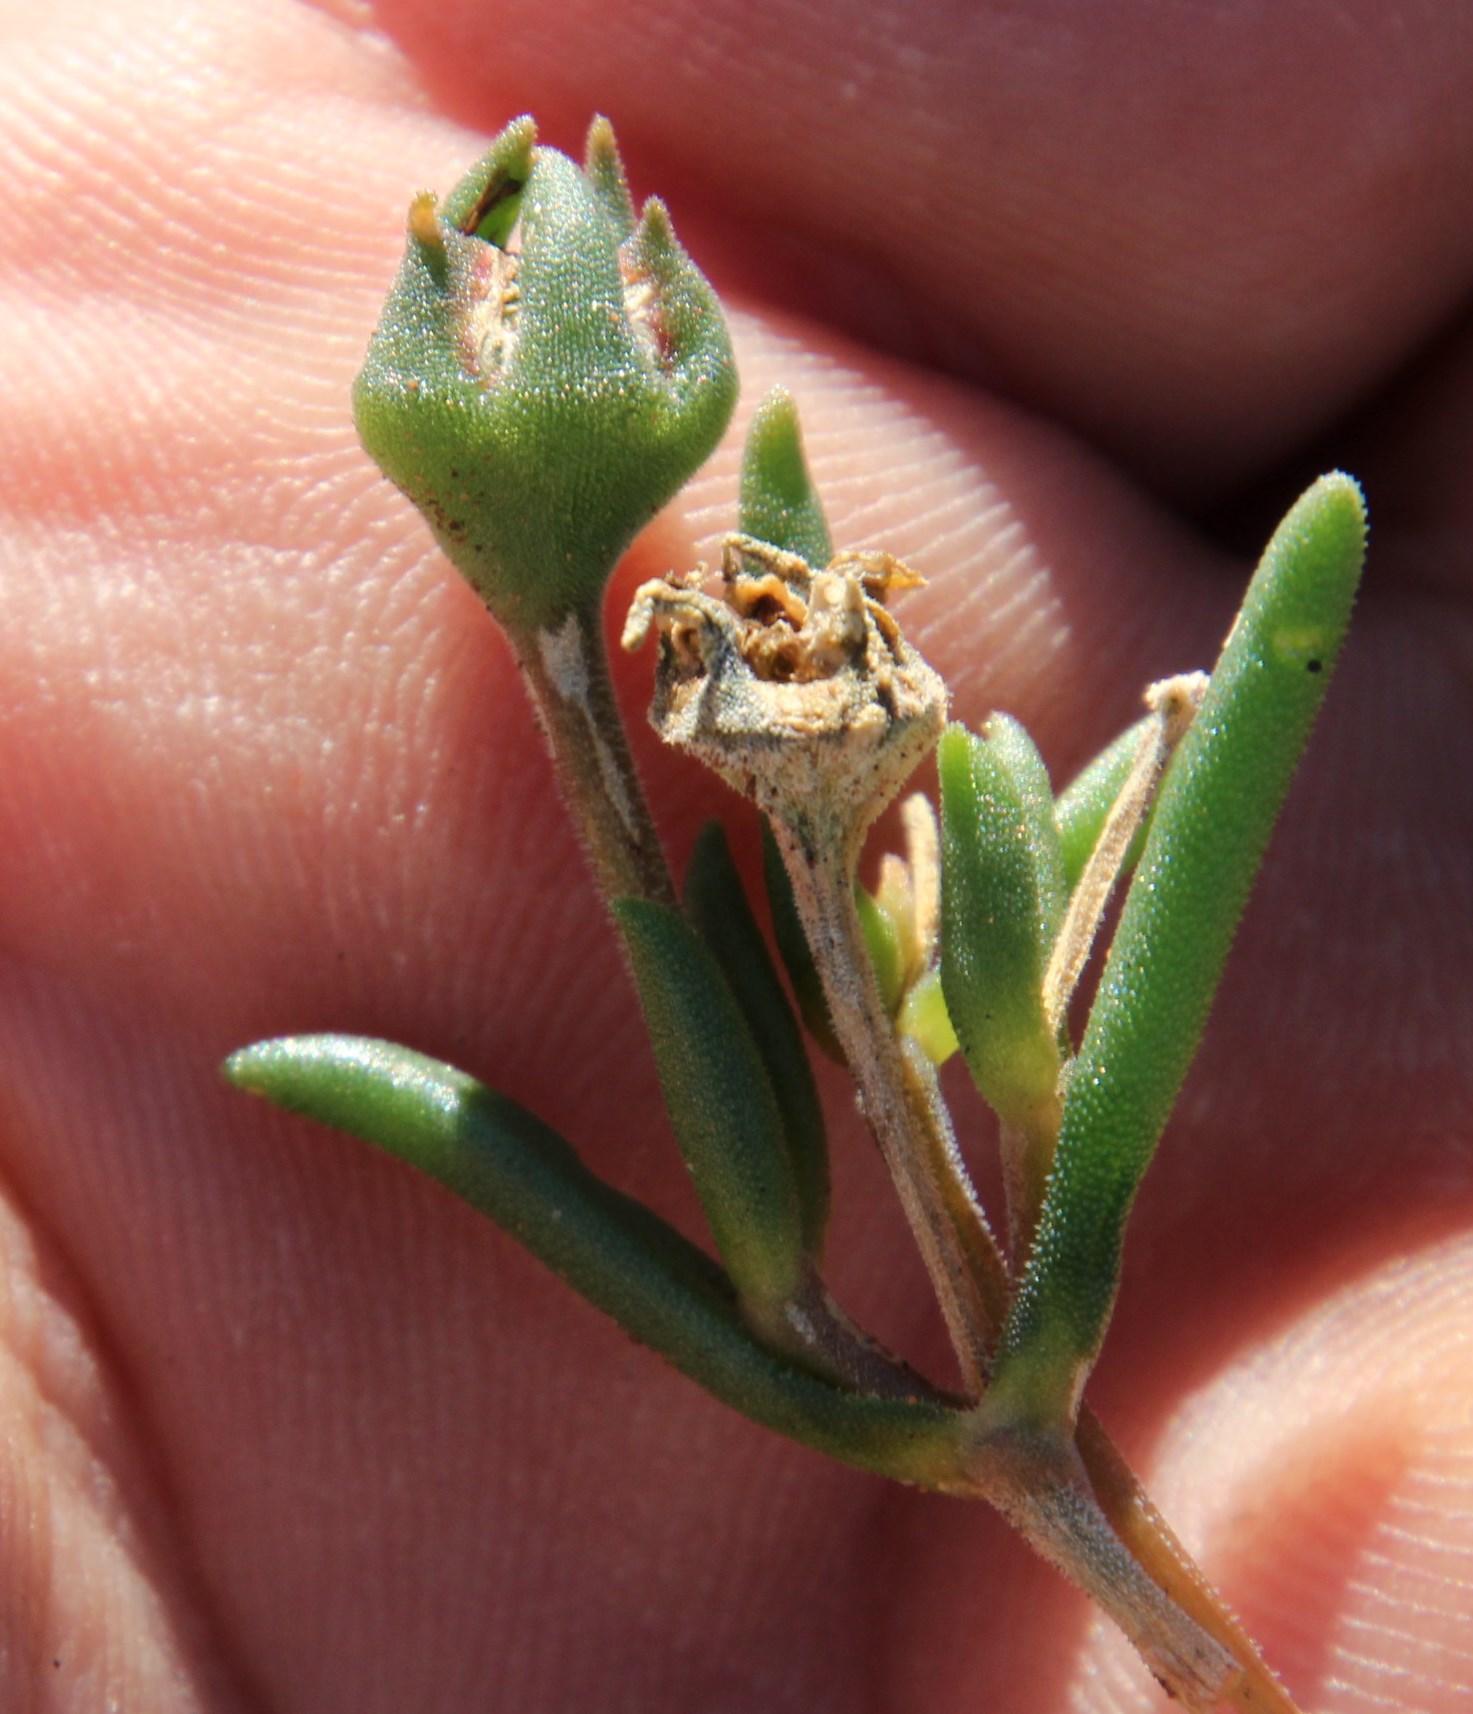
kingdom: Plantae
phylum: Tracheophyta
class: Magnoliopsida
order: Caryophyllales
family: Aizoaceae
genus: Delosperma
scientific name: Delosperma lootsbergense
